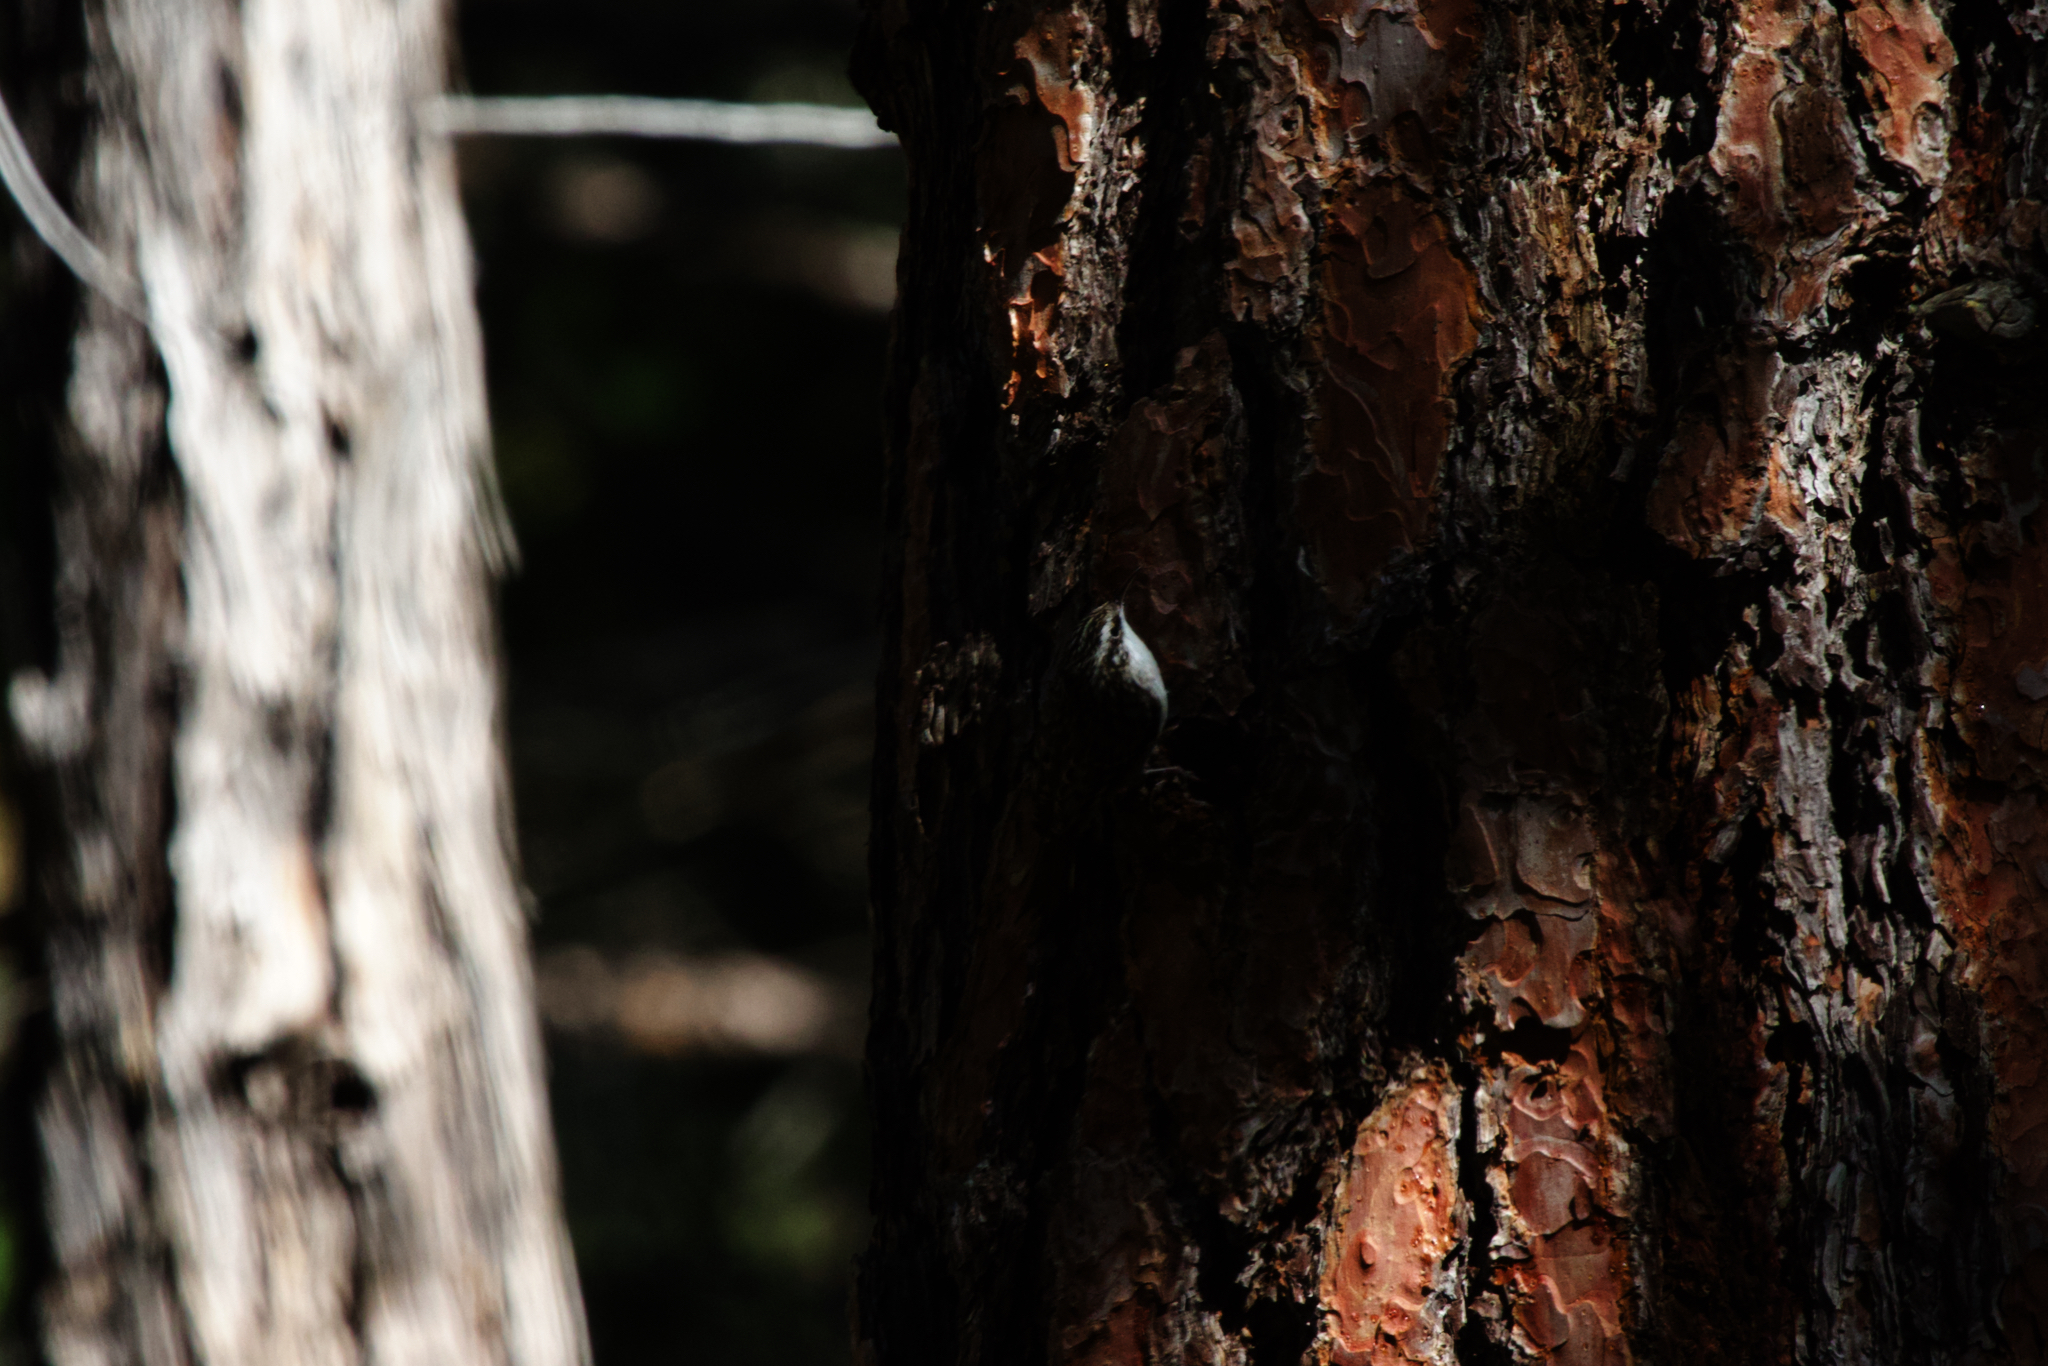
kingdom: Animalia
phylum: Chordata
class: Aves
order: Passeriformes
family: Certhiidae
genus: Certhia
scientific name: Certhia americana
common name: Brown creeper
